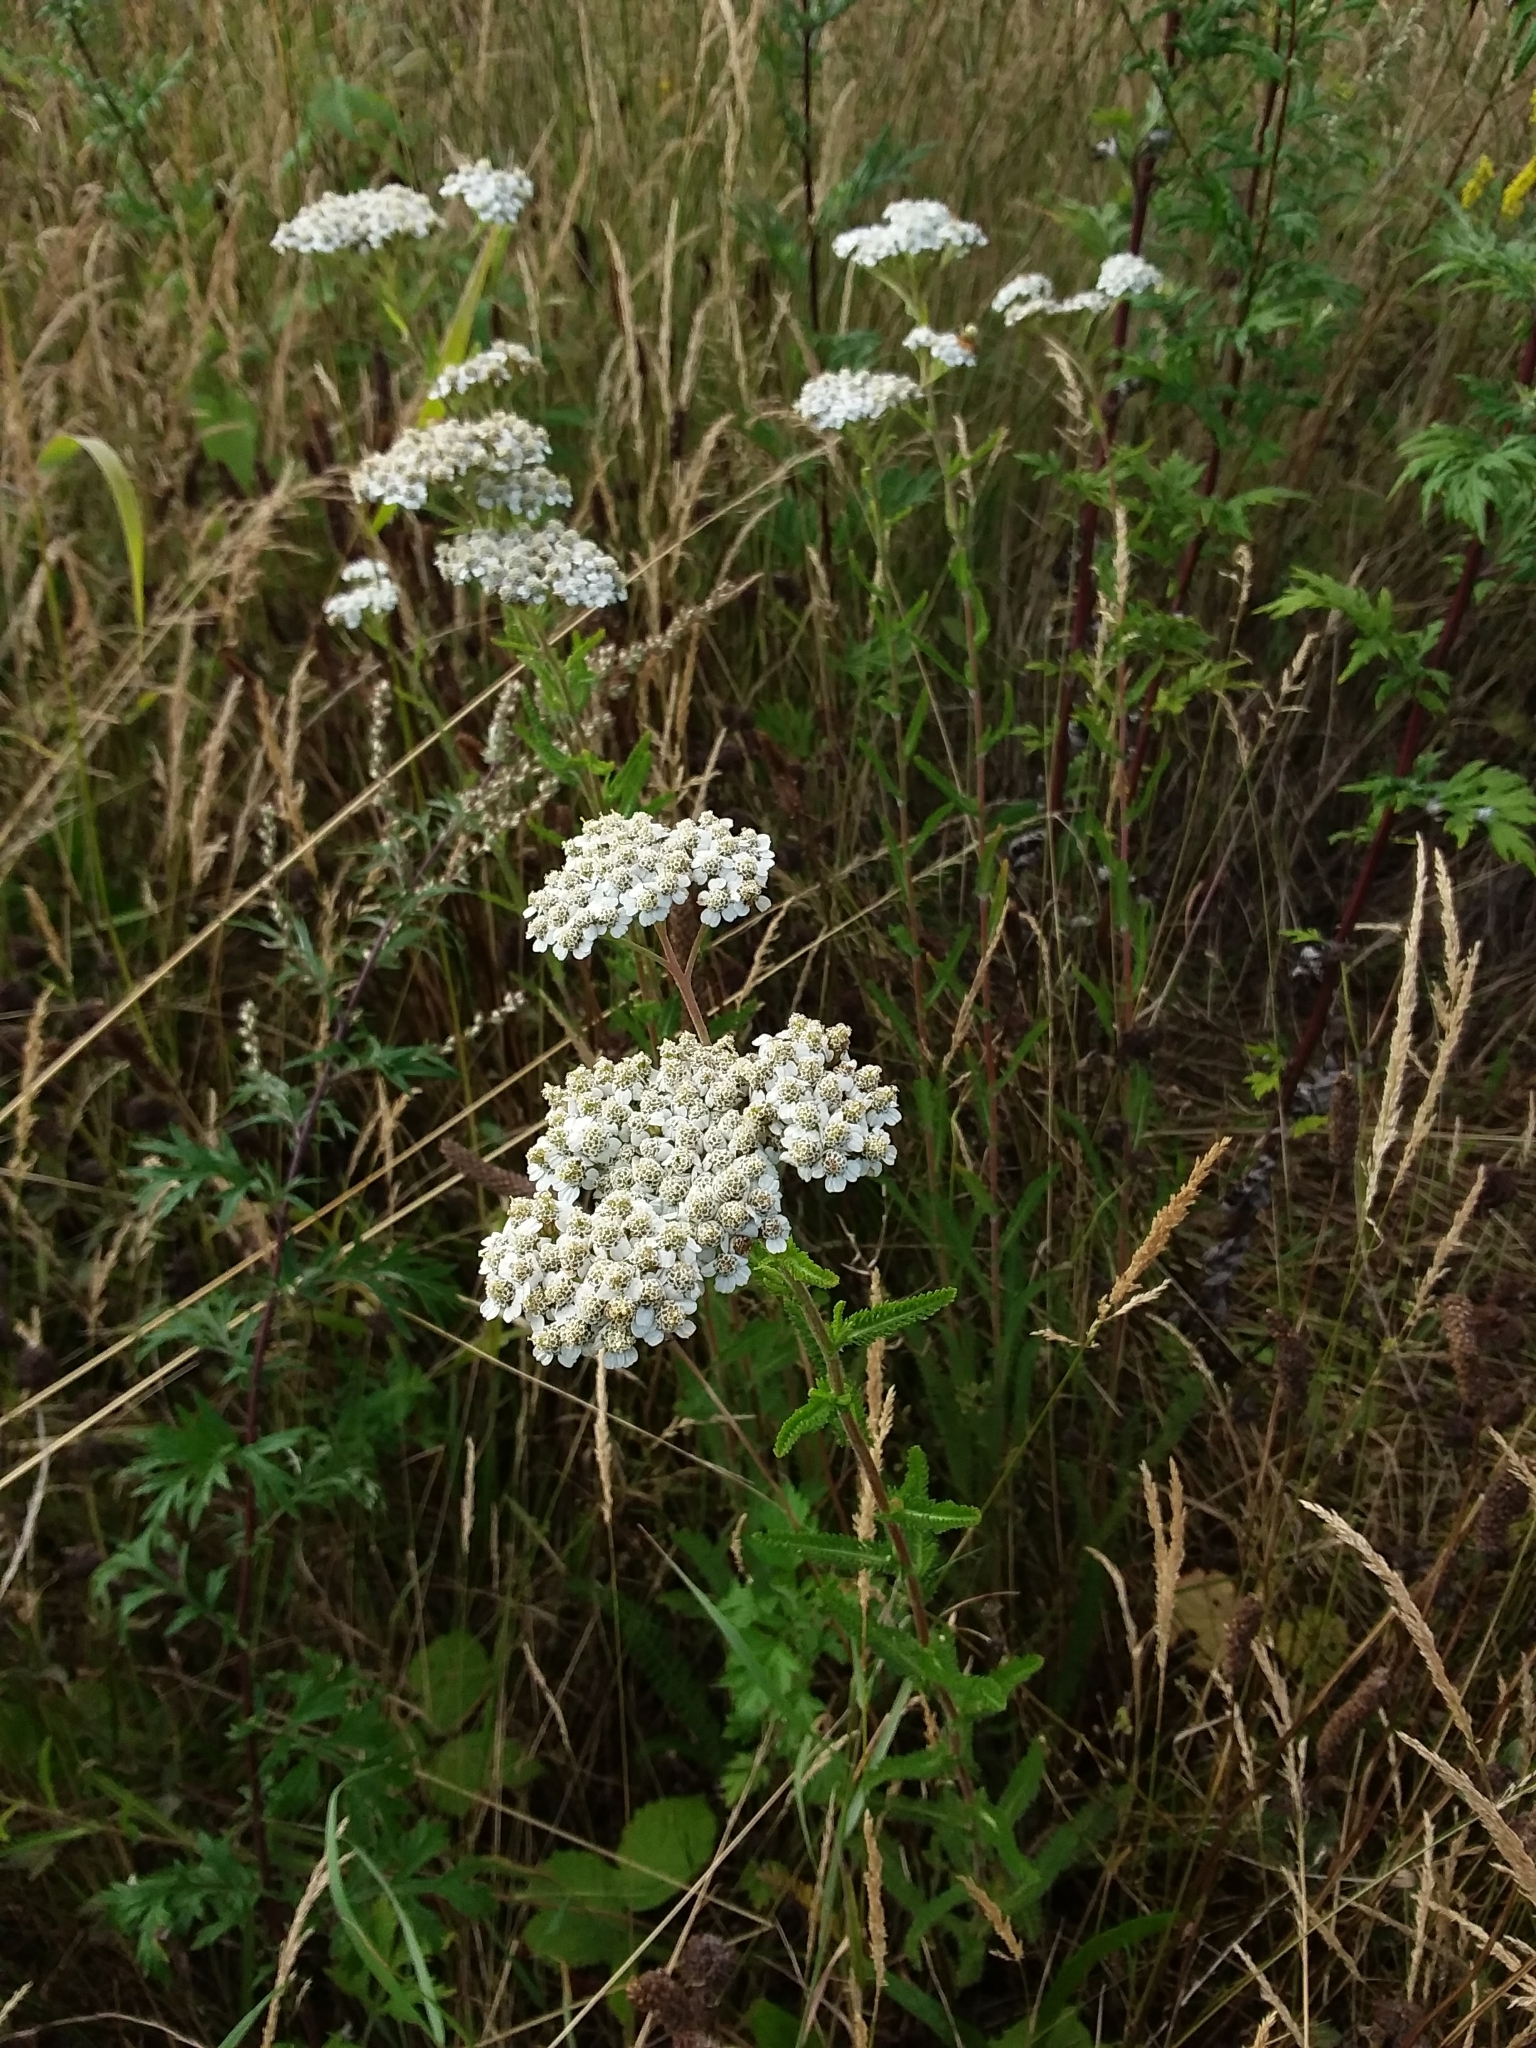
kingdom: Plantae
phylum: Tracheophyta
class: Magnoliopsida
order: Asterales
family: Asteraceae
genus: Achillea
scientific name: Achillea millefolium
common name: Yarrow
